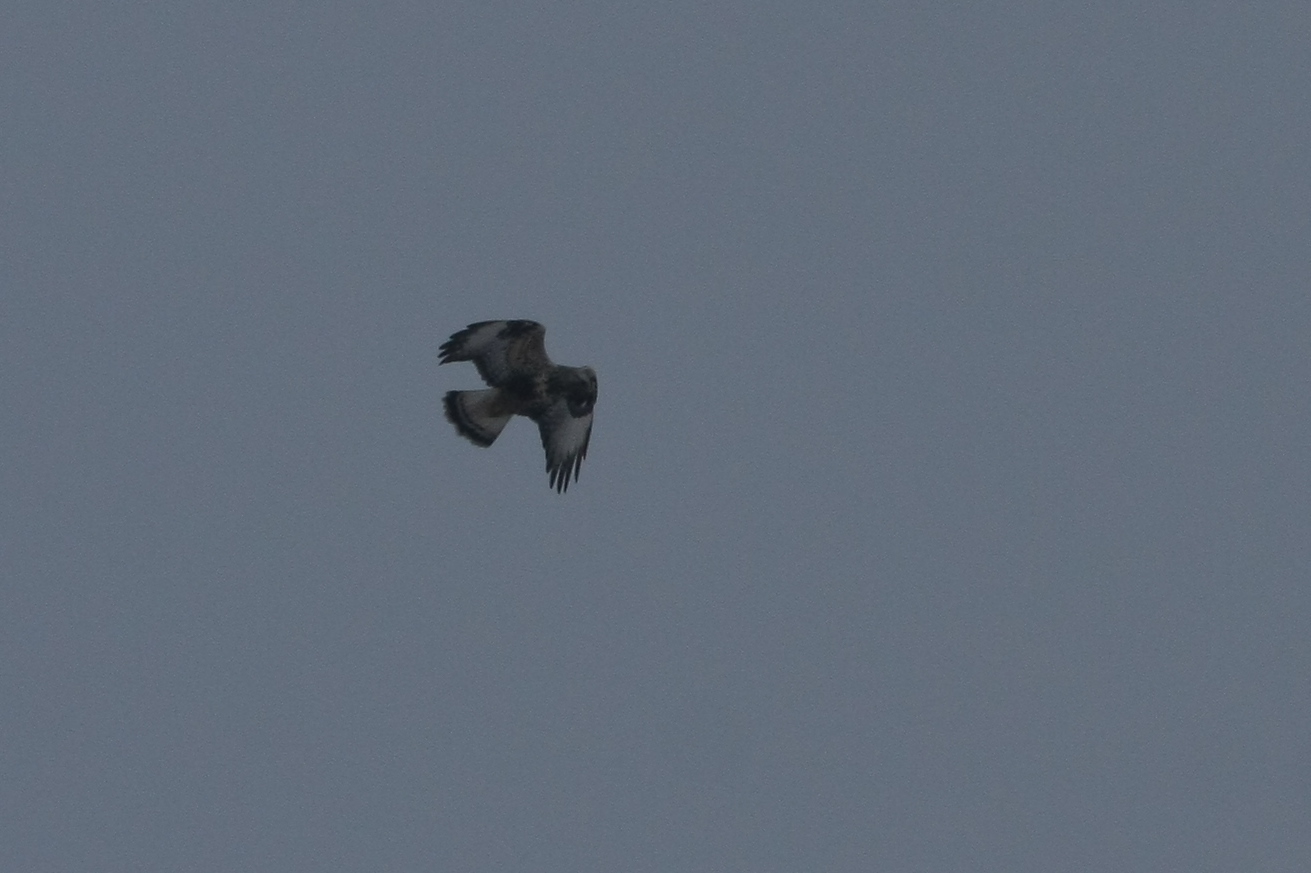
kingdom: Animalia
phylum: Chordata
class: Aves
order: Accipitriformes
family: Accipitridae
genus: Buteo
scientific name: Buteo lagopus
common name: Rough-legged buzzard
